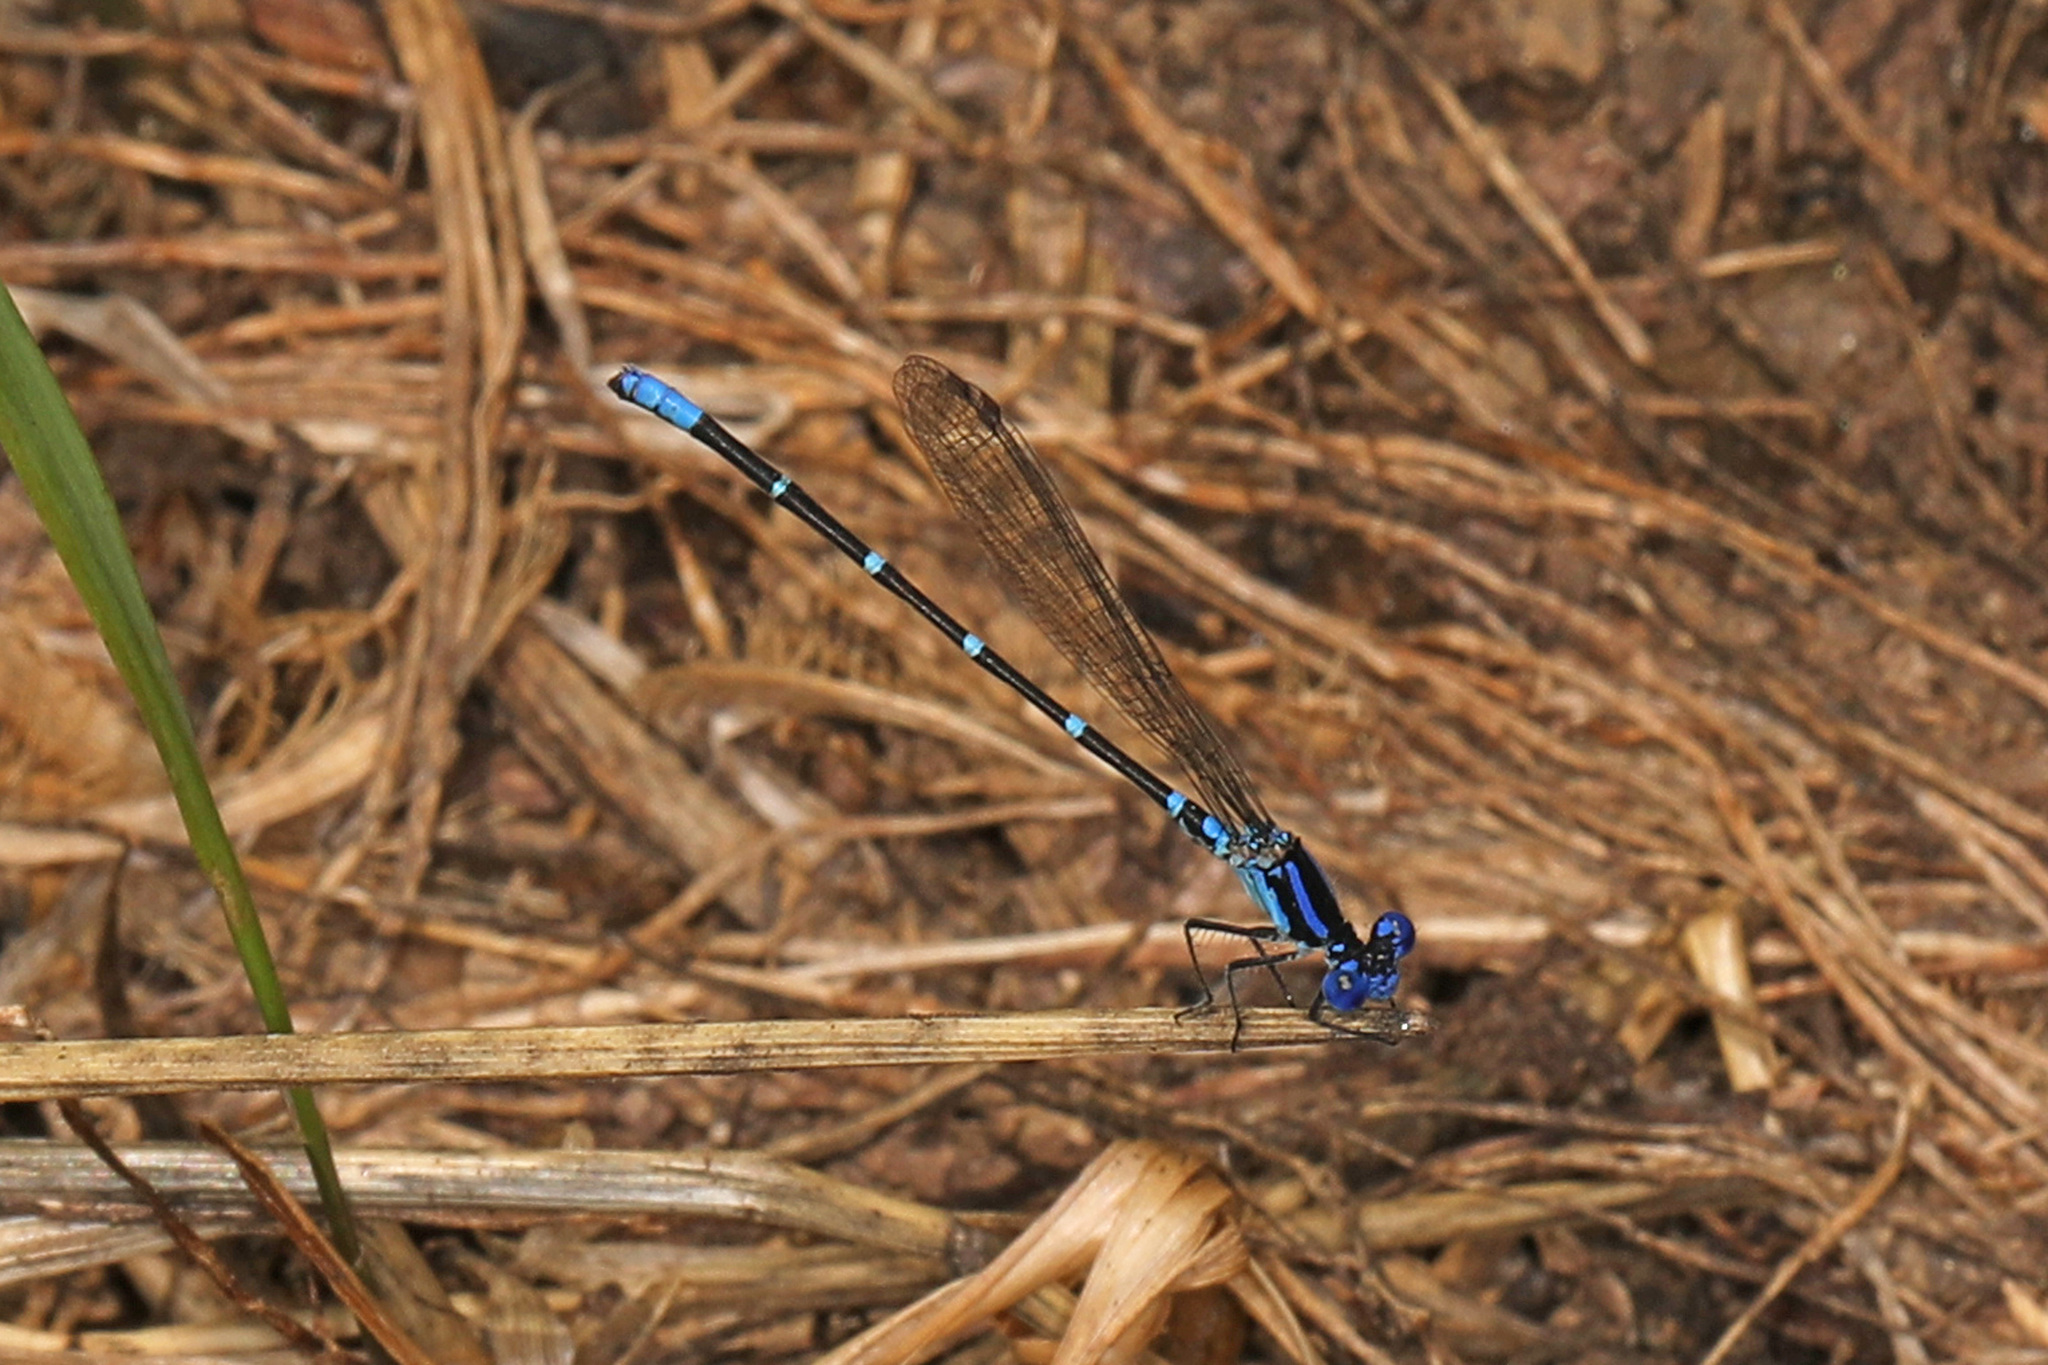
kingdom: Animalia
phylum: Arthropoda
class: Insecta
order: Odonata
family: Coenagrionidae
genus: Argia
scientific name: Argia sedula
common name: Blue-ringed dancer
